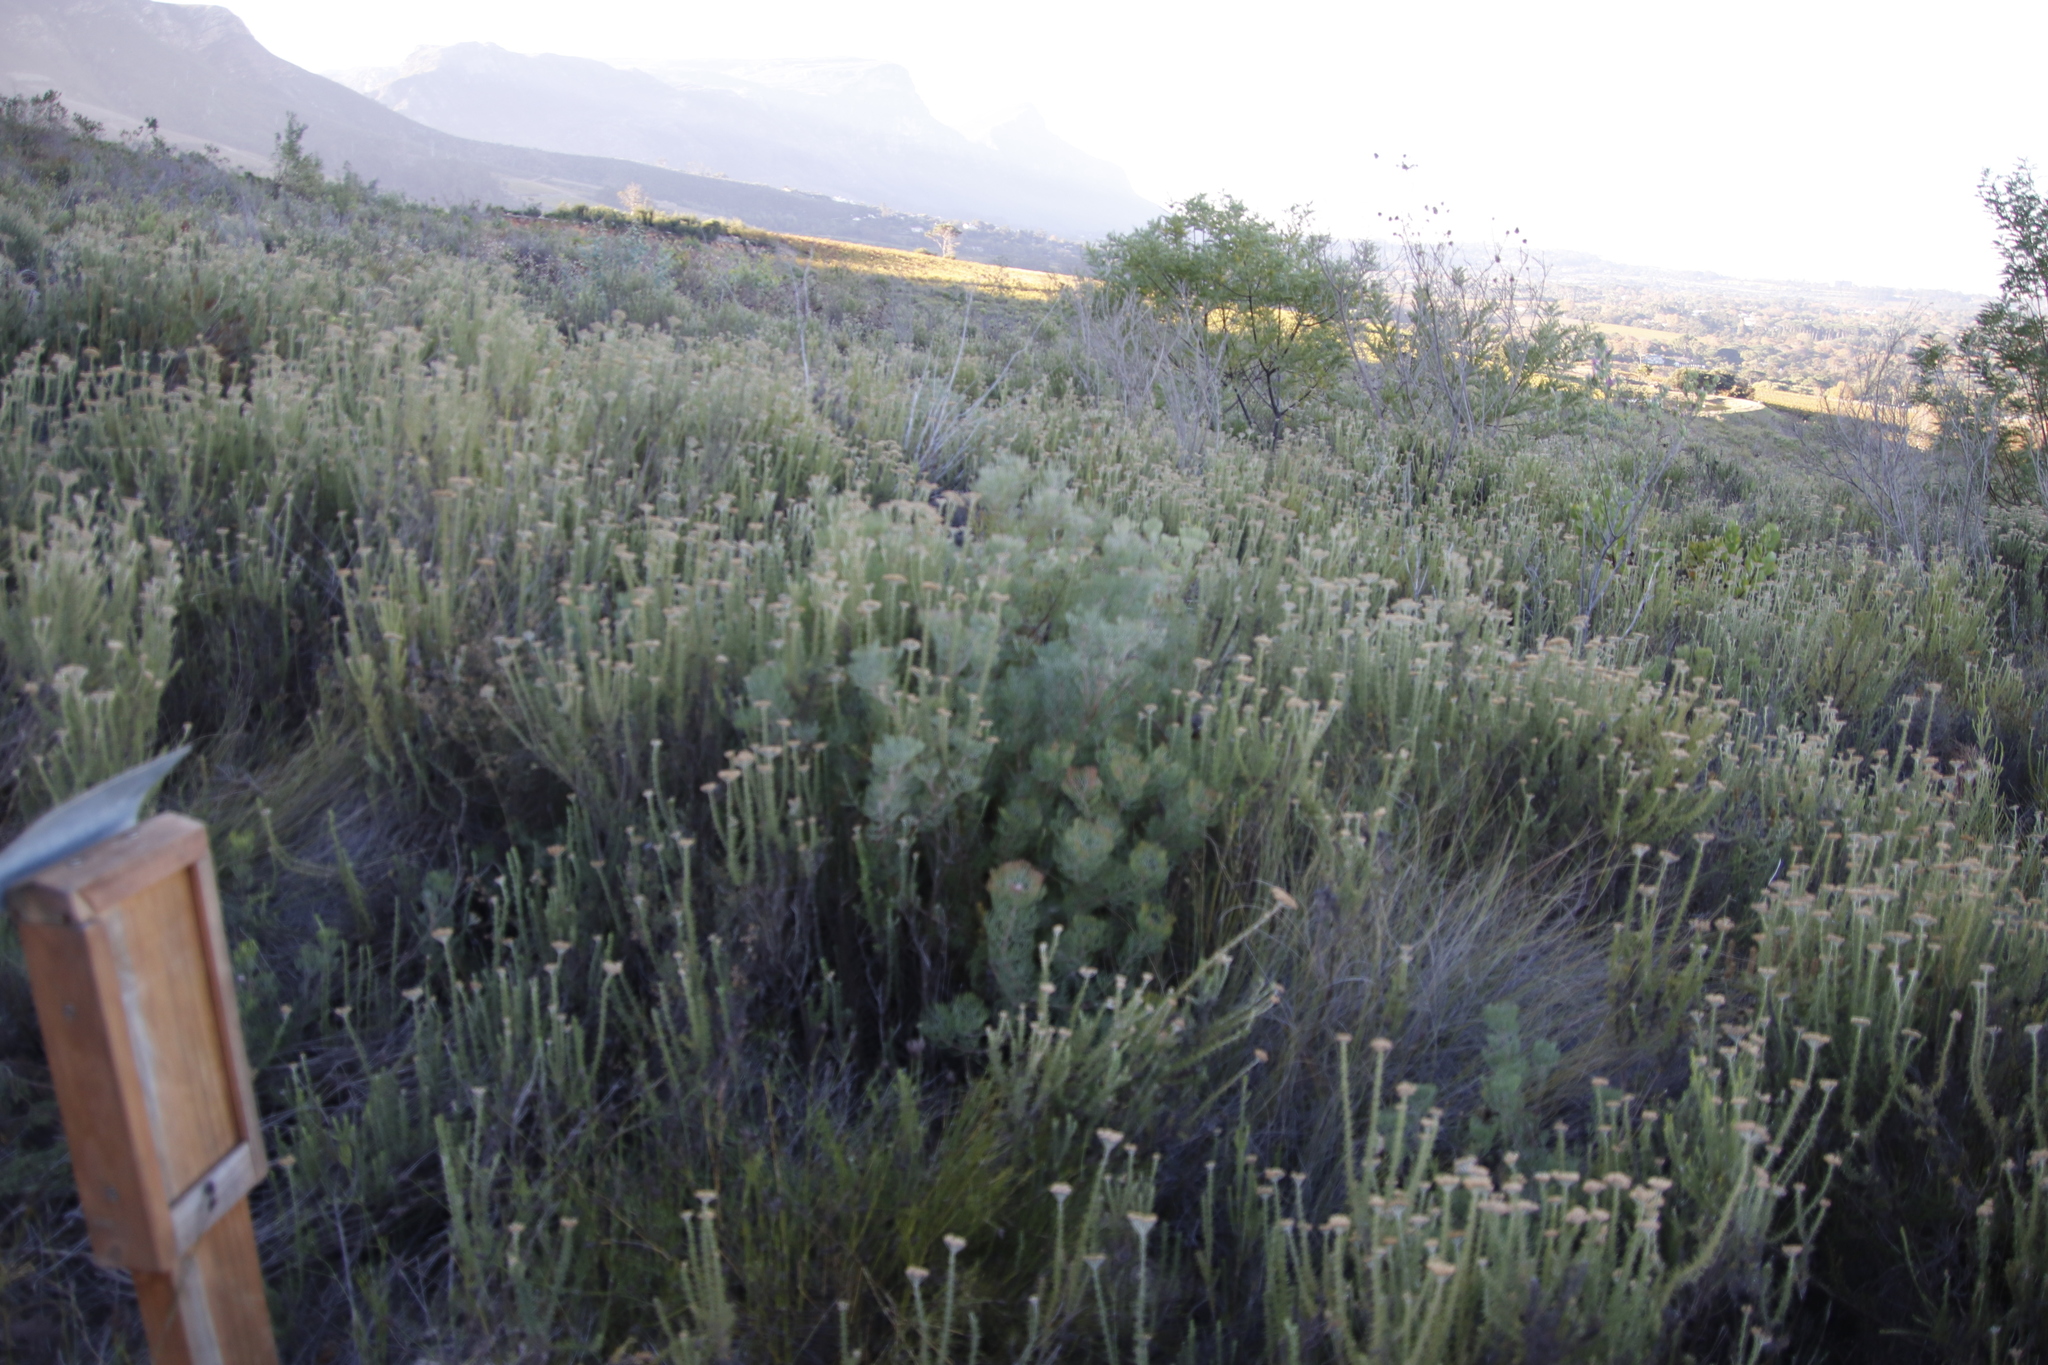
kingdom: Plantae
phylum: Tracheophyta
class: Magnoliopsida
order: Proteales
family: Proteaceae
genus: Serruria
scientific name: Serruria fasciflora
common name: Common pin spiderhead
